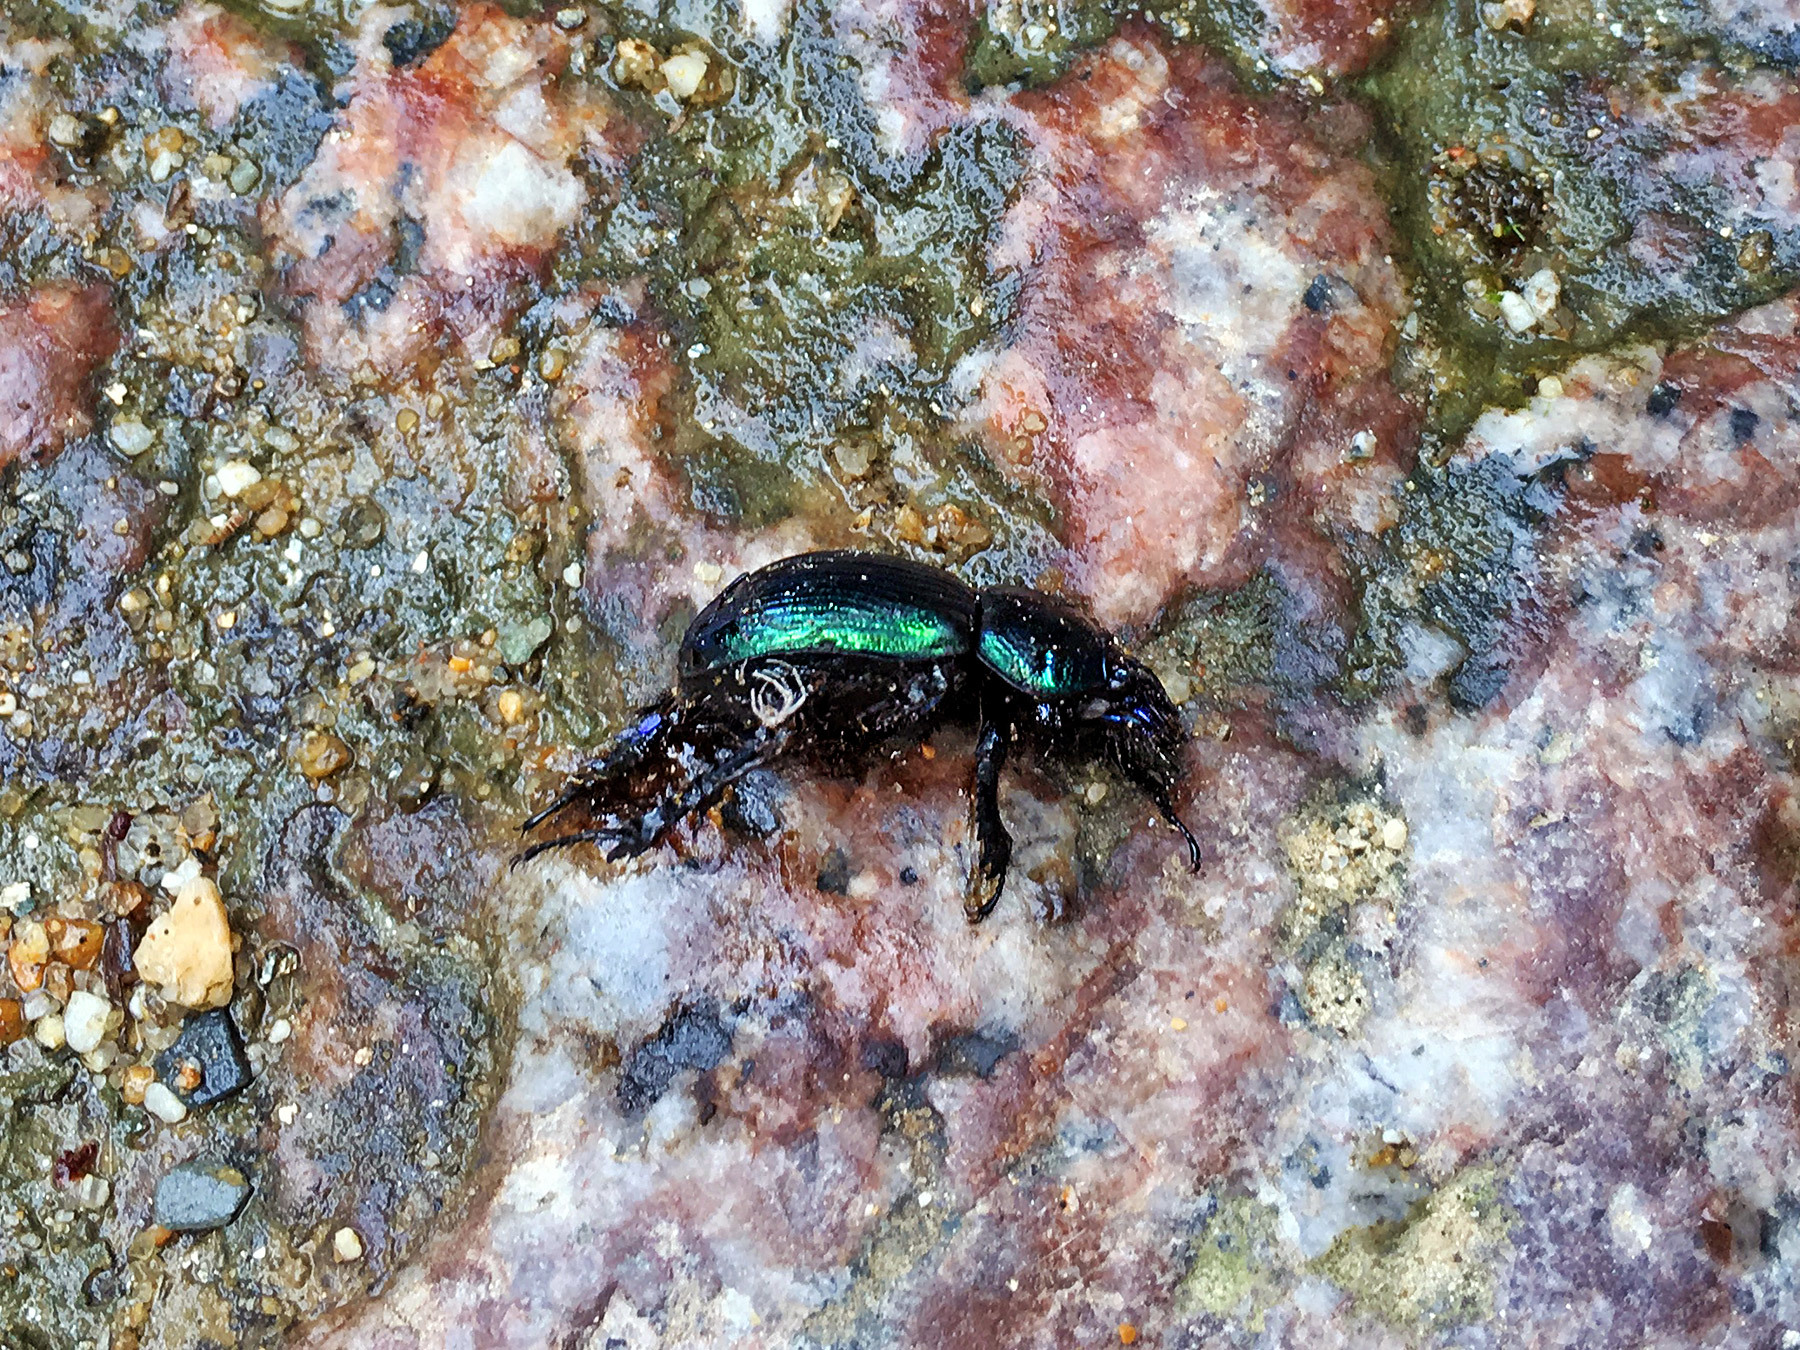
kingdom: Animalia
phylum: Arthropoda
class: Insecta
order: Coleoptera
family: Geotrupidae
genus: Phelotrupes
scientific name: Phelotrupes laevistriatus
